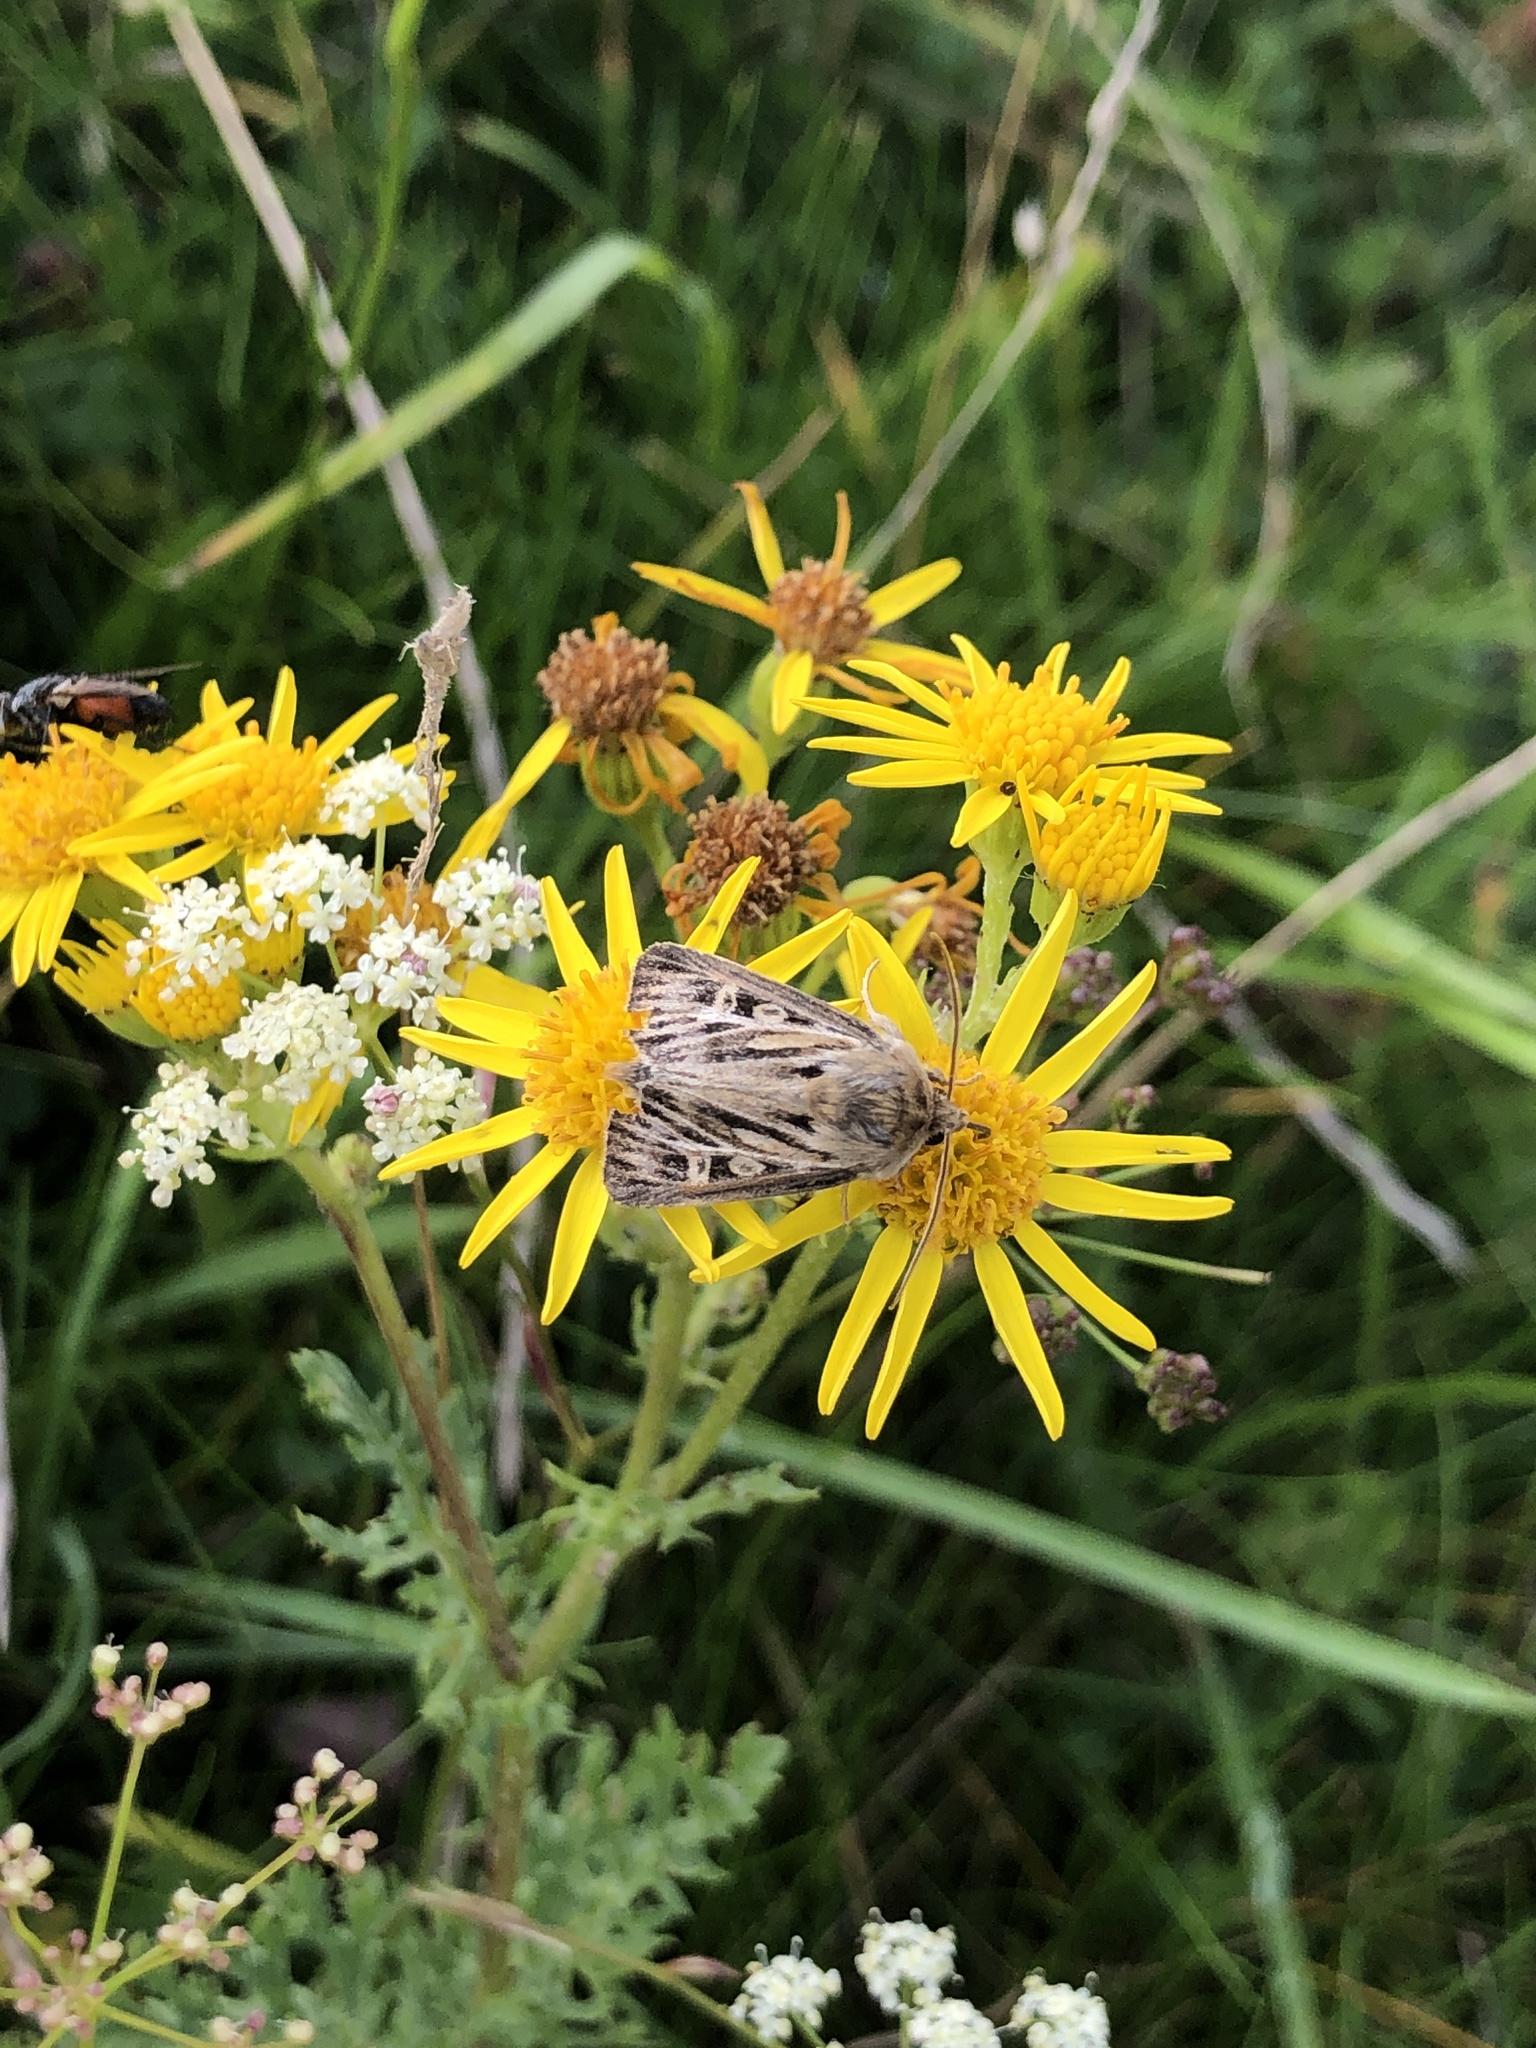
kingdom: Animalia
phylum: Arthropoda
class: Insecta
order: Lepidoptera
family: Noctuidae
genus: Cerapteryx
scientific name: Cerapteryx graminis
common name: Antler moth
